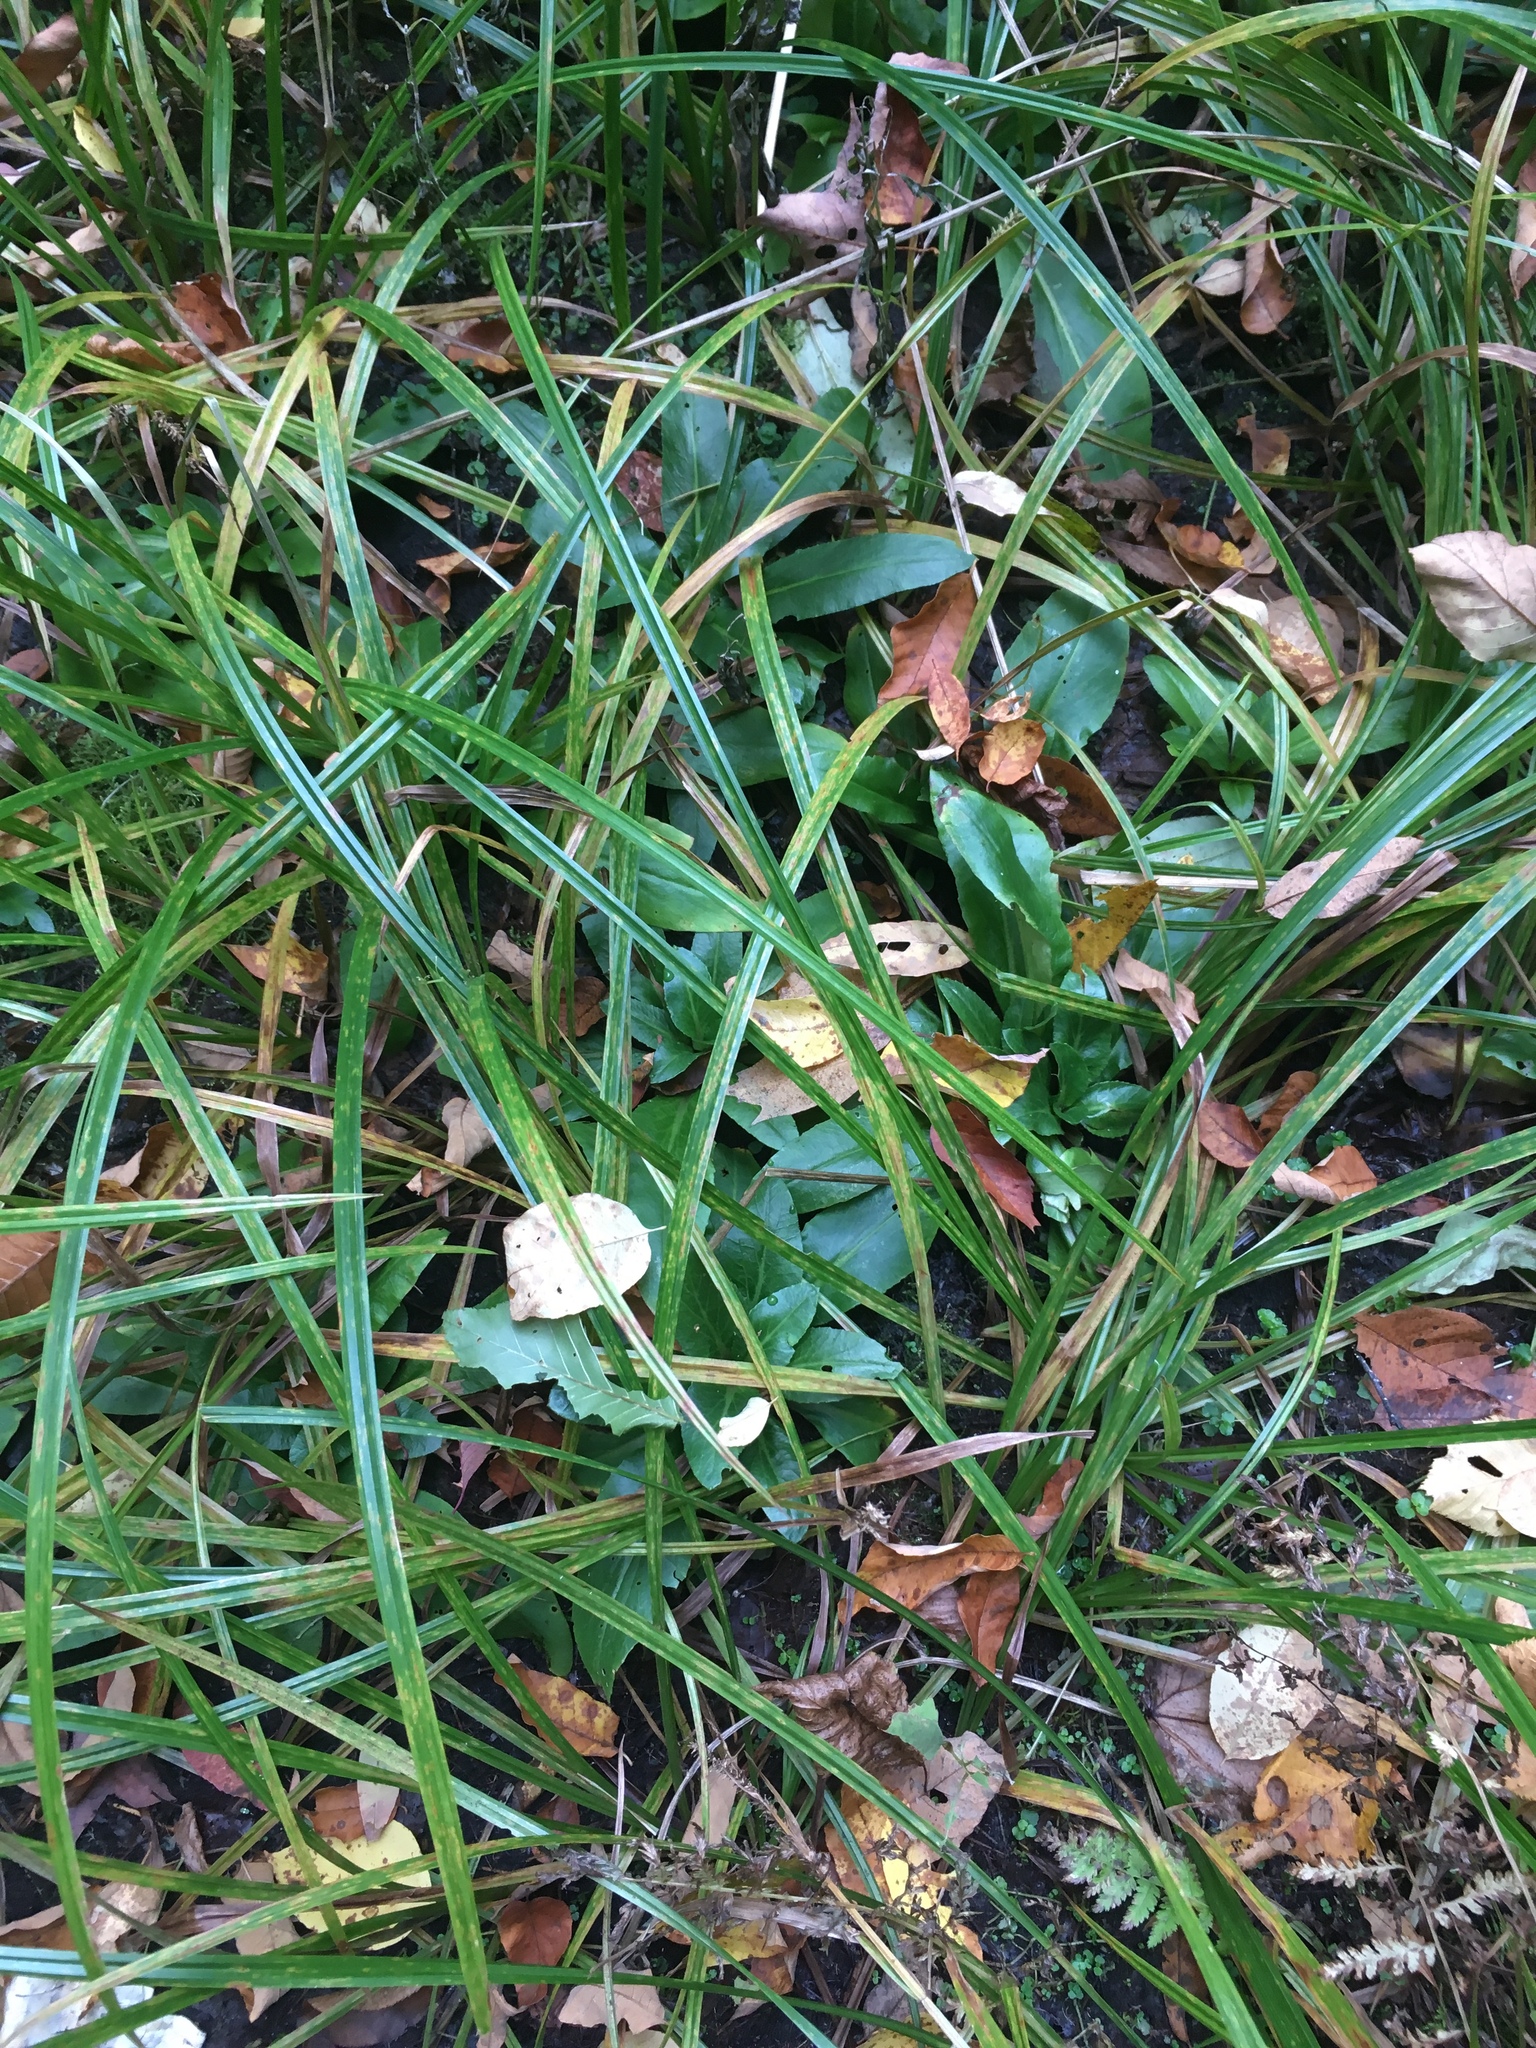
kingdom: Plantae
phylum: Tracheophyta
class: Magnoliopsida
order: Saxifragales
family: Saxifragaceae
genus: Micranthes
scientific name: Micranthes pensylvanica
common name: Marsh saxifrage
